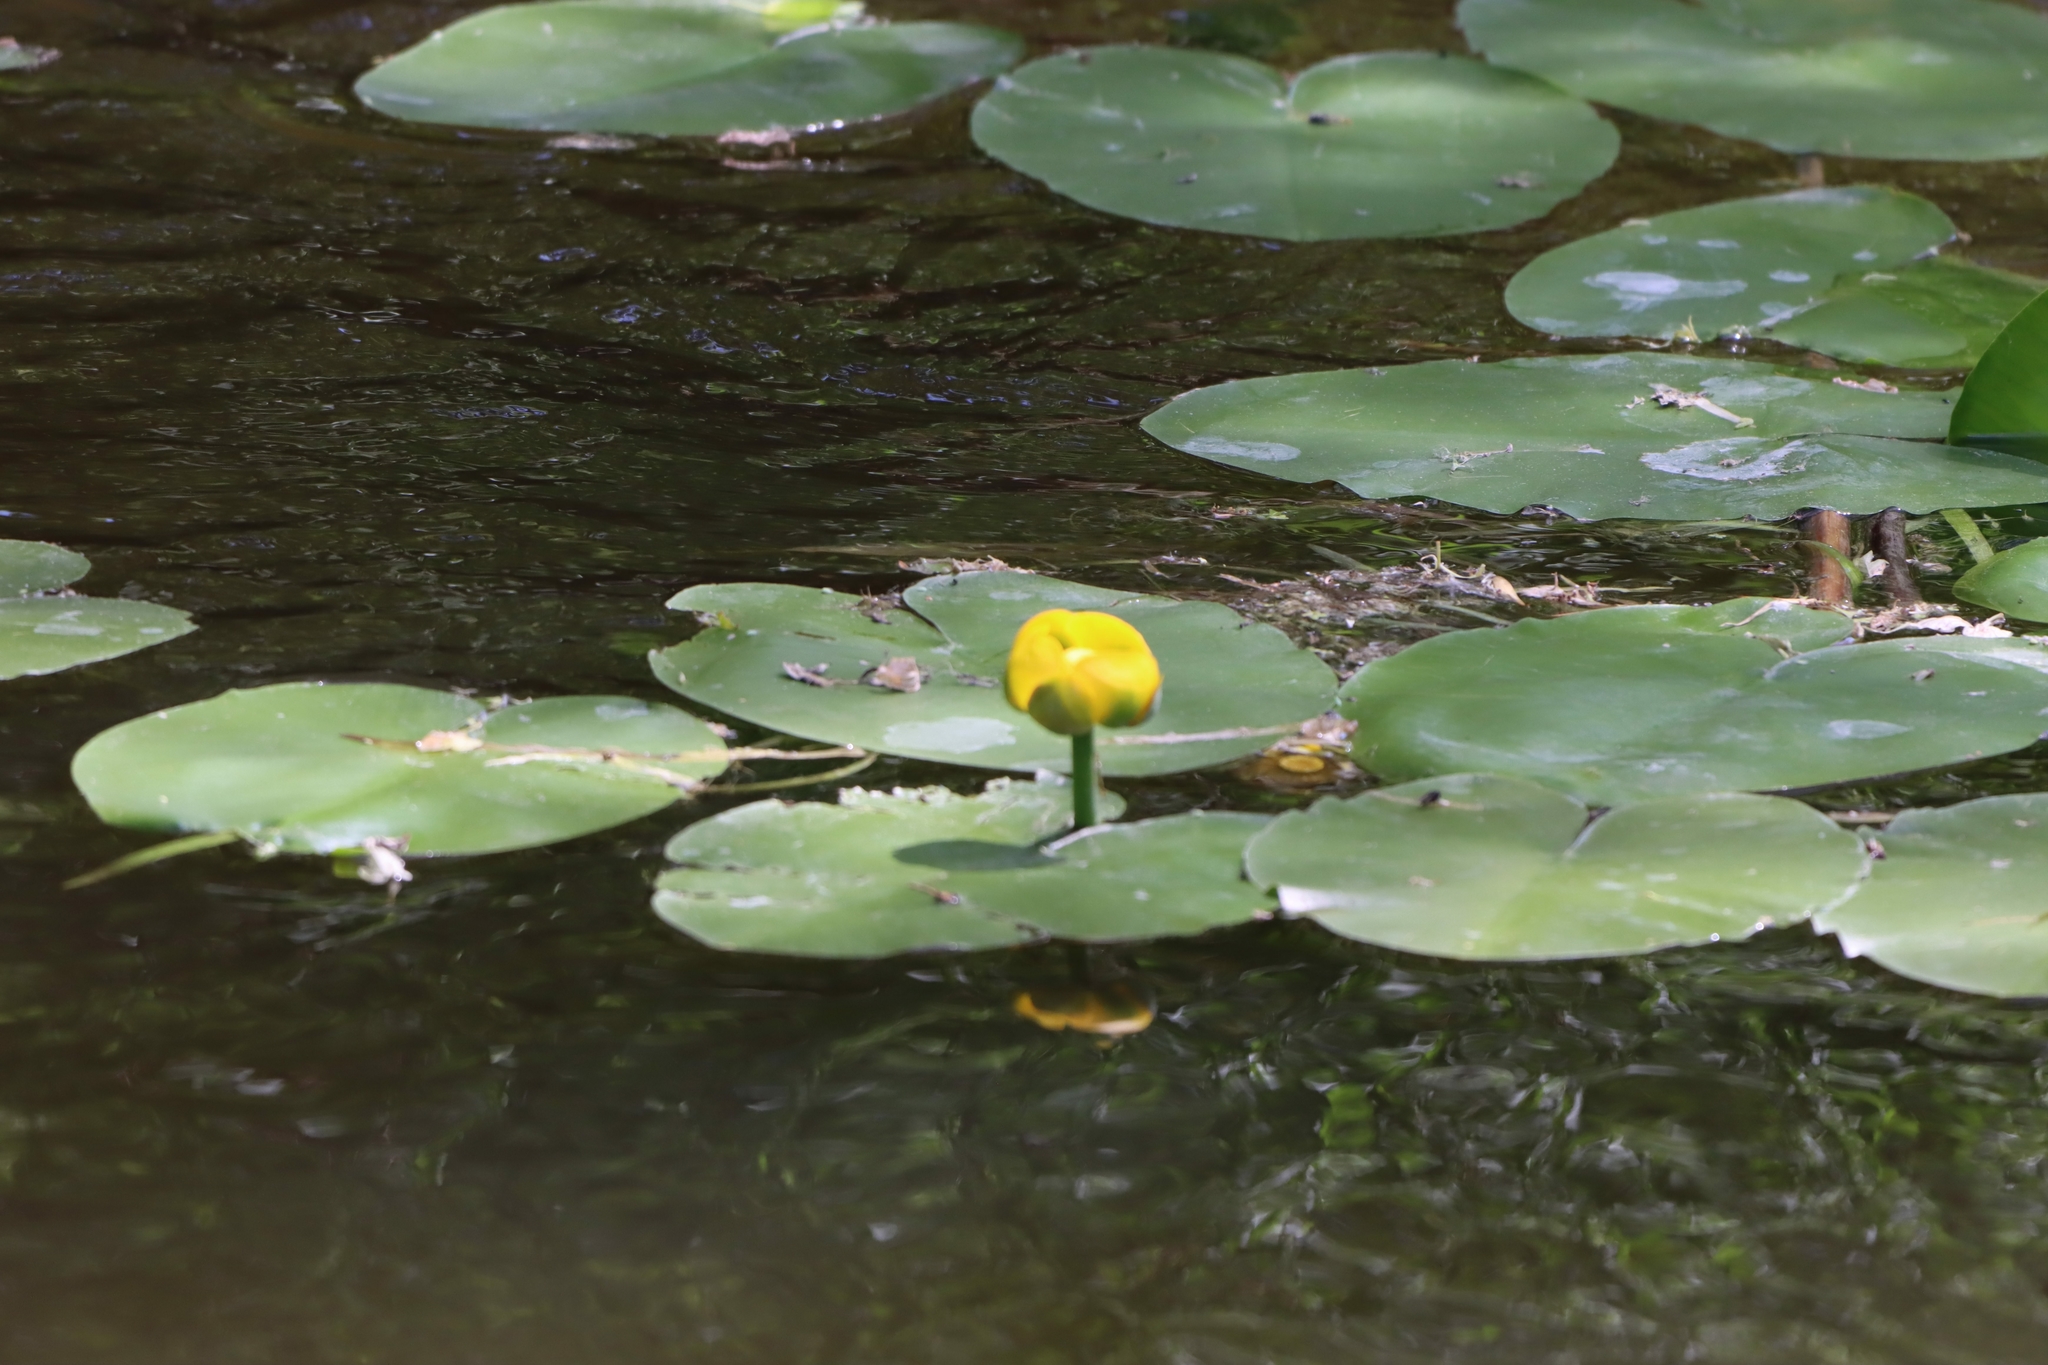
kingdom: Plantae
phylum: Tracheophyta
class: Magnoliopsida
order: Nymphaeales
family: Nymphaeaceae
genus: Nuphar
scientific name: Nuphar variegata
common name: Beaver-root
